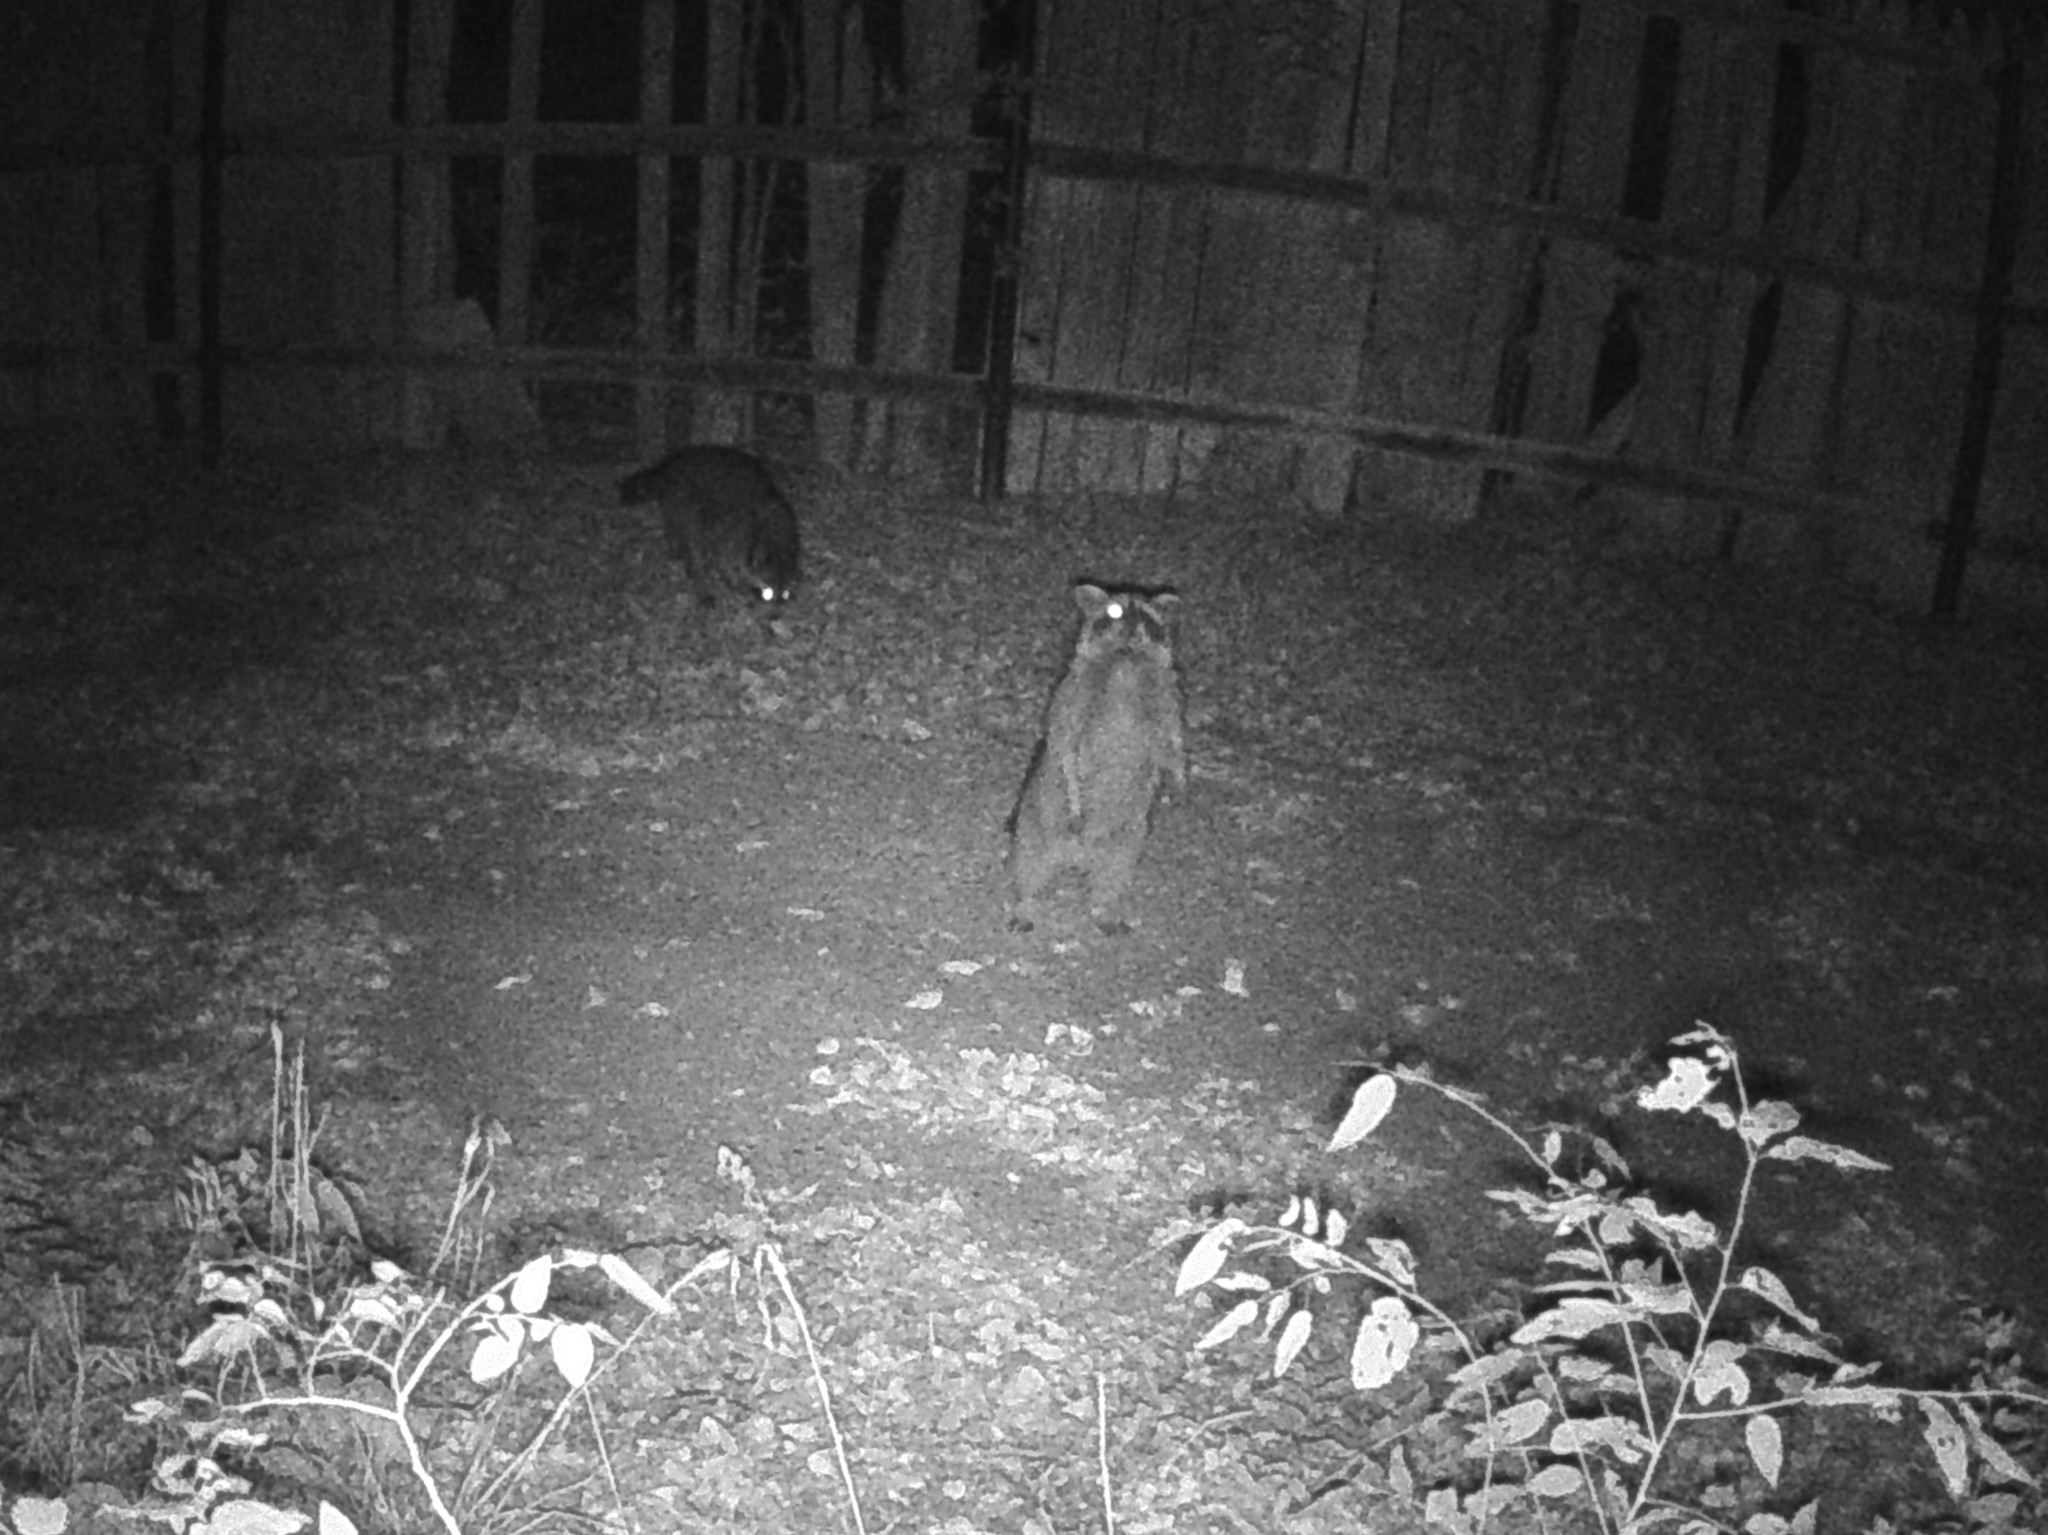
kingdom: Animalia
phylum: Chordata
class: Mammalia
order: Carnivora
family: Procyonidae
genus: Procyon
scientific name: Procyon lotor
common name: Raccoon
